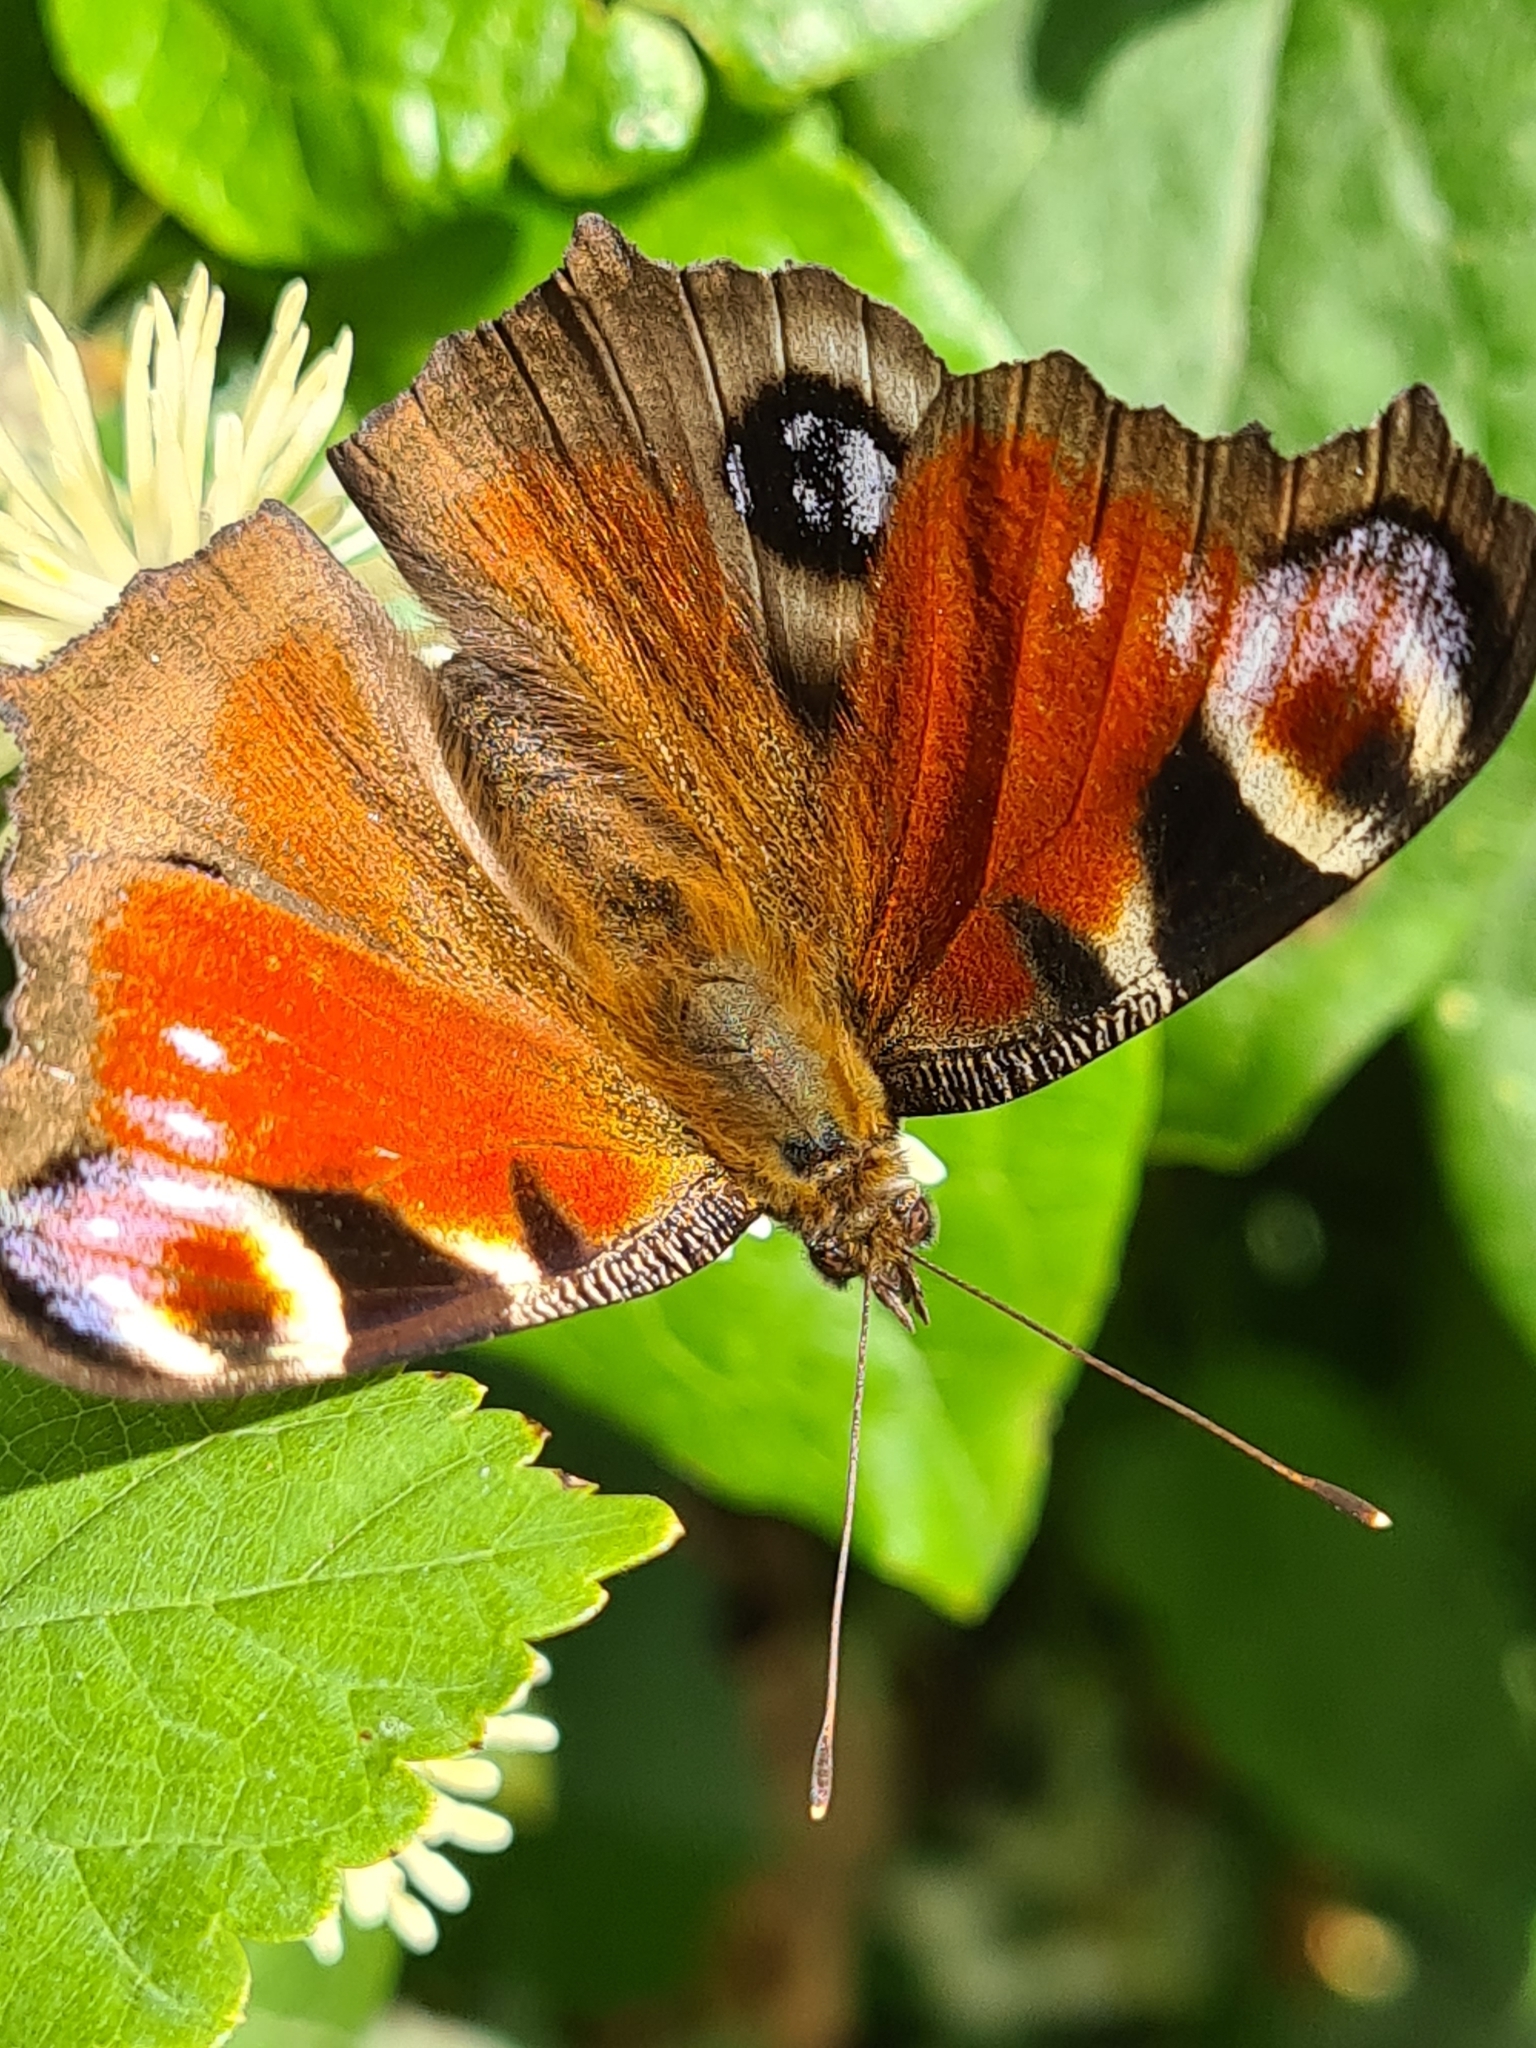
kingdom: Animalia
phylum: Arthropoda
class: Insecta
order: Lepidoptera
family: Nymphalidae
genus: Aglais
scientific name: Aglais io
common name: Peacock
